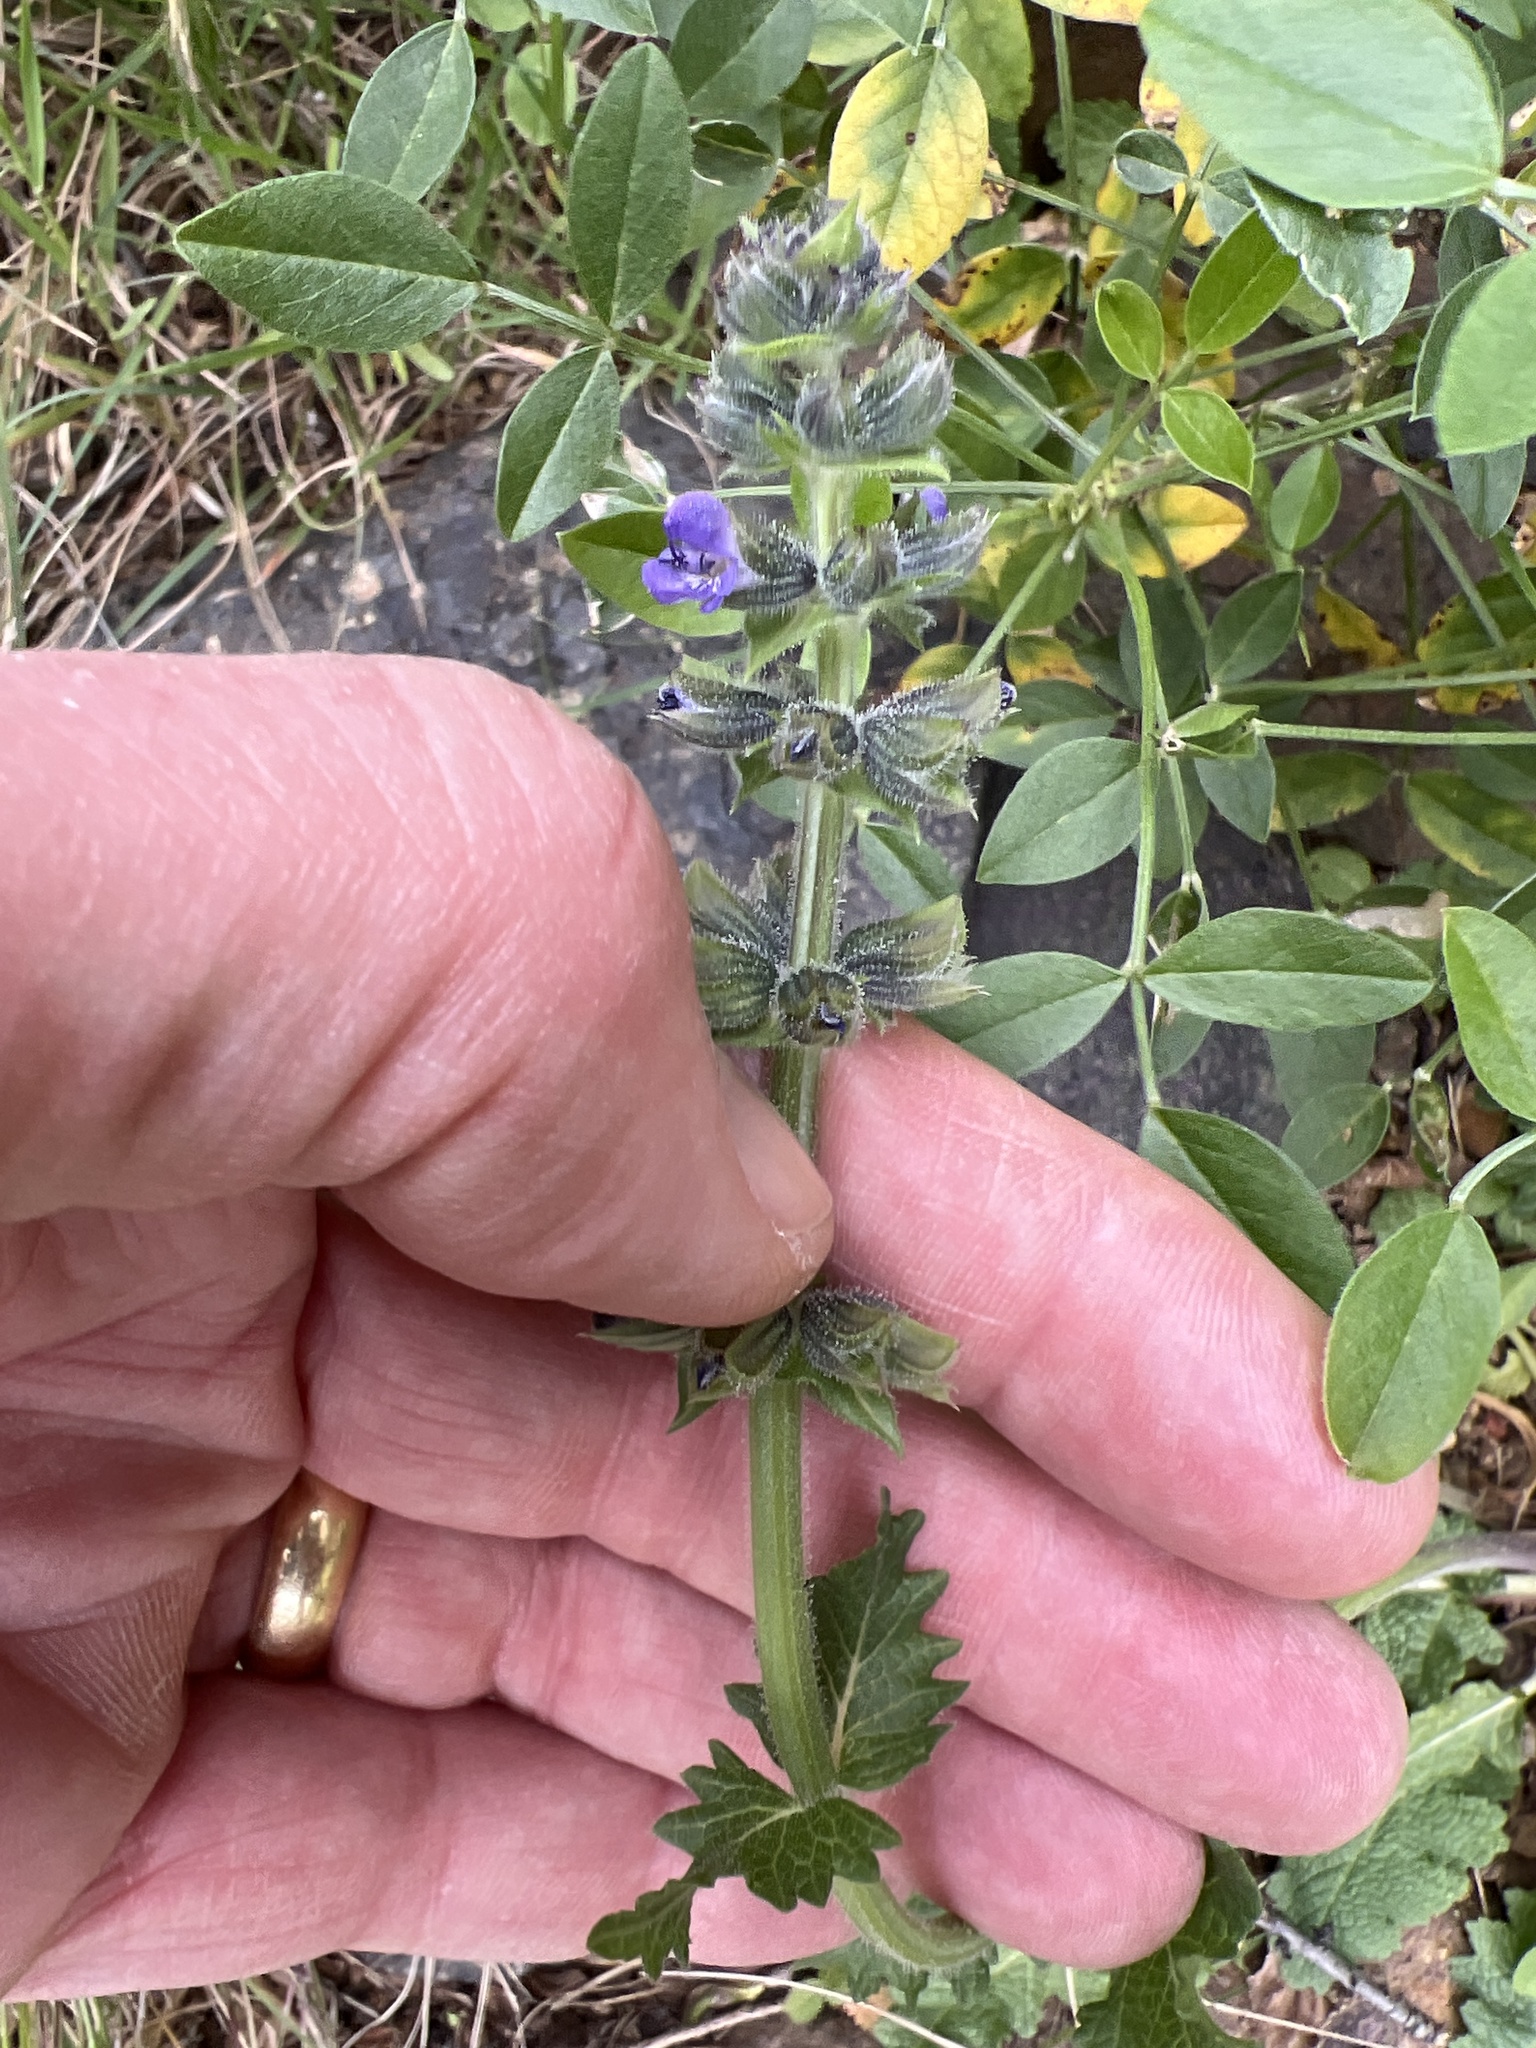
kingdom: Plantae
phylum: Tracheophyta
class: Magnoliopsida
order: Lamiales
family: Lamiaceae
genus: Salvia
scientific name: Salvia verbenaca
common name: Wild clary
